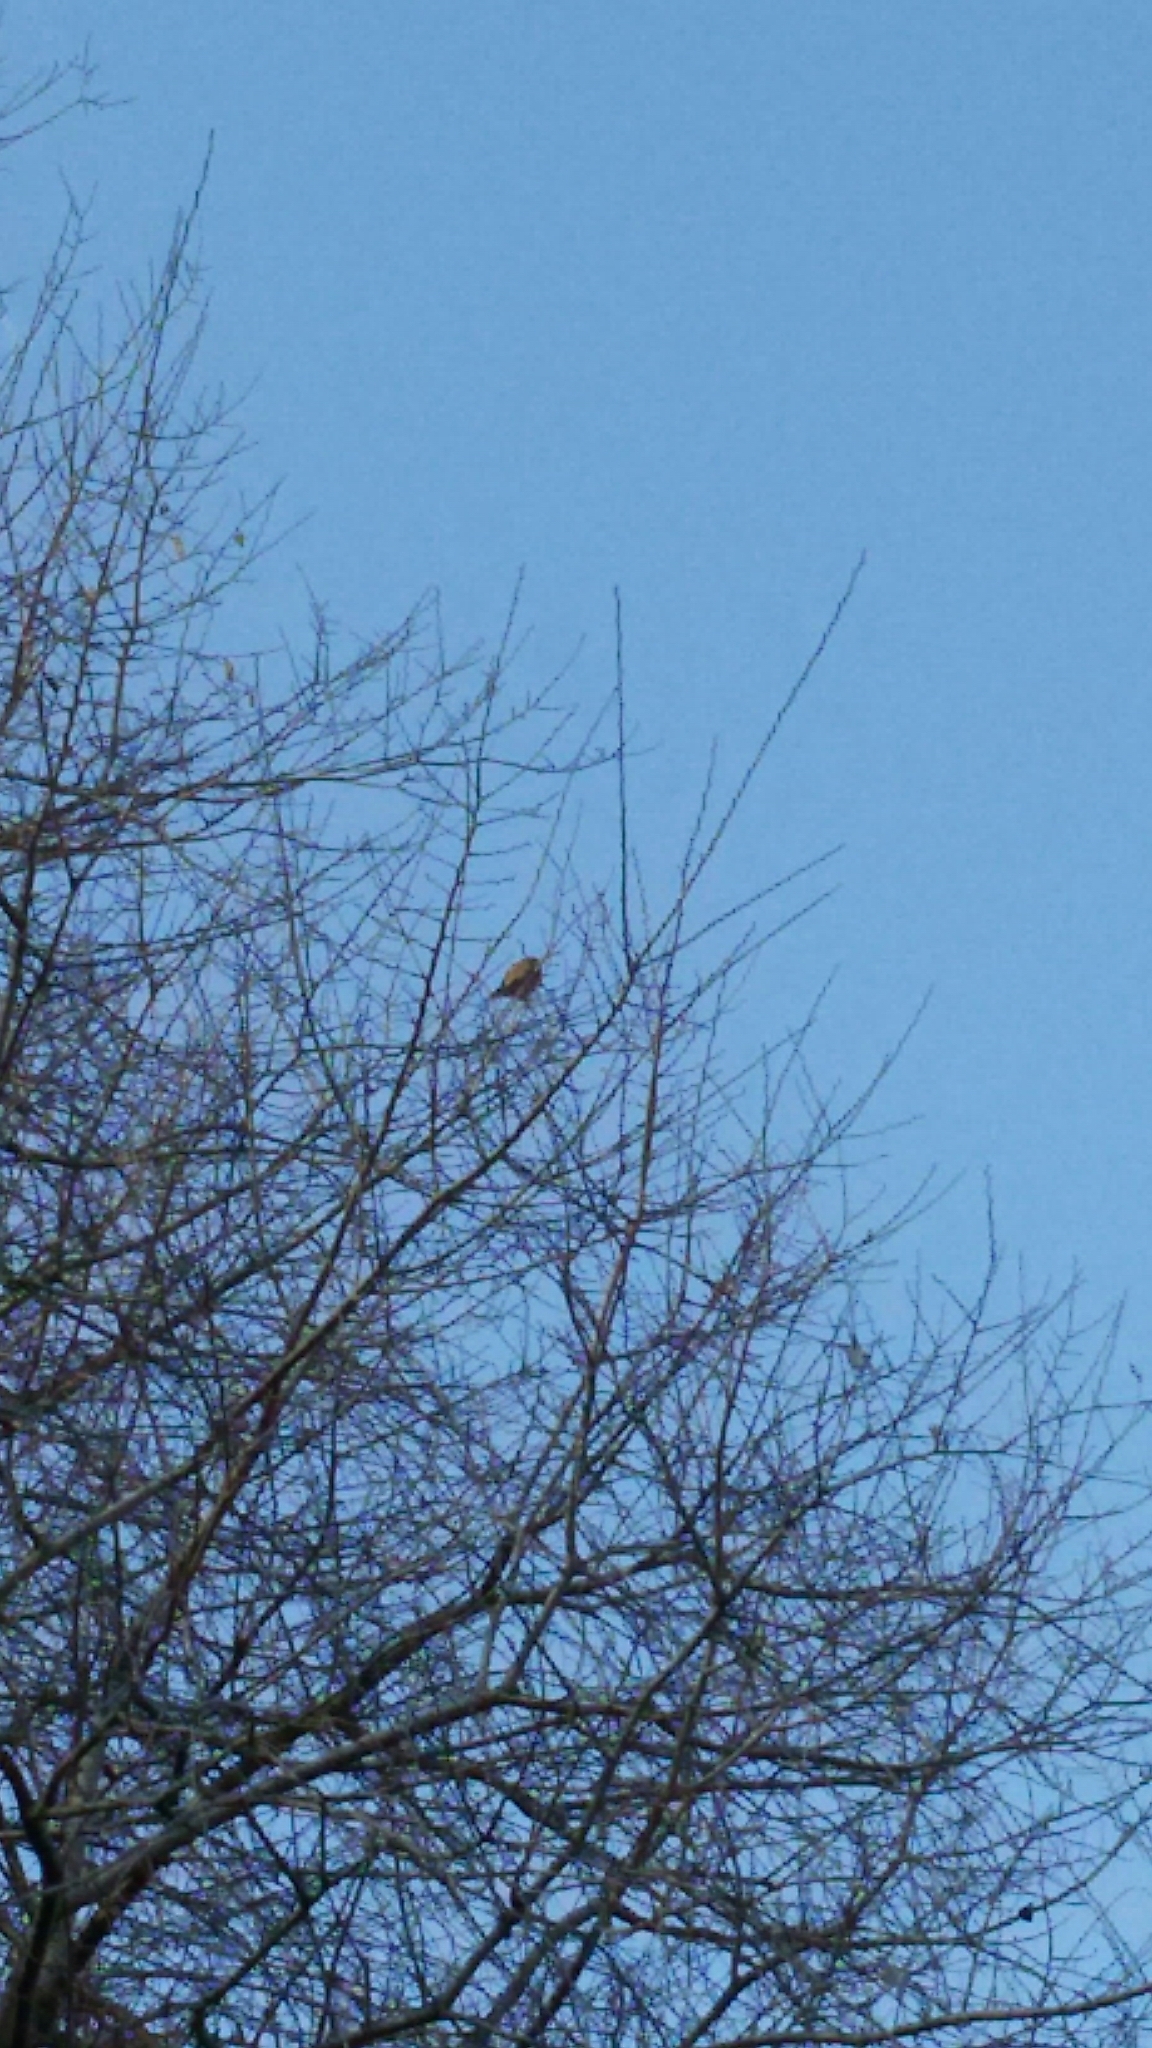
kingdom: Animalia
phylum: Chordata
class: Aves
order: Falconiformes
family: Falconidae
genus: Falco
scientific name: Falco tinnunculus
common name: Common kestrel
